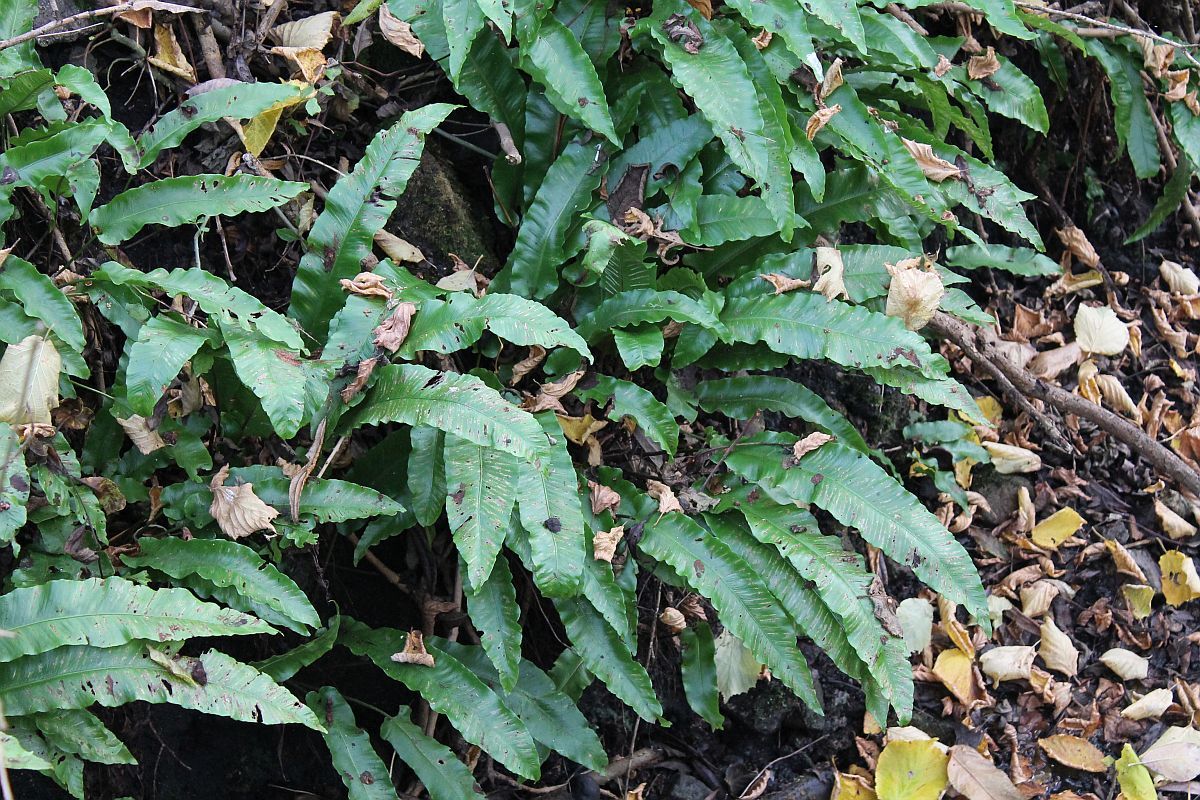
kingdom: Plantae
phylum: Tracheophyta
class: Polypodiopsida
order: Polypodiales
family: Aspleniaceae
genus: Asplenium
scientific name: Asplenium scolopendrium
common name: Hart's-tongue fern
